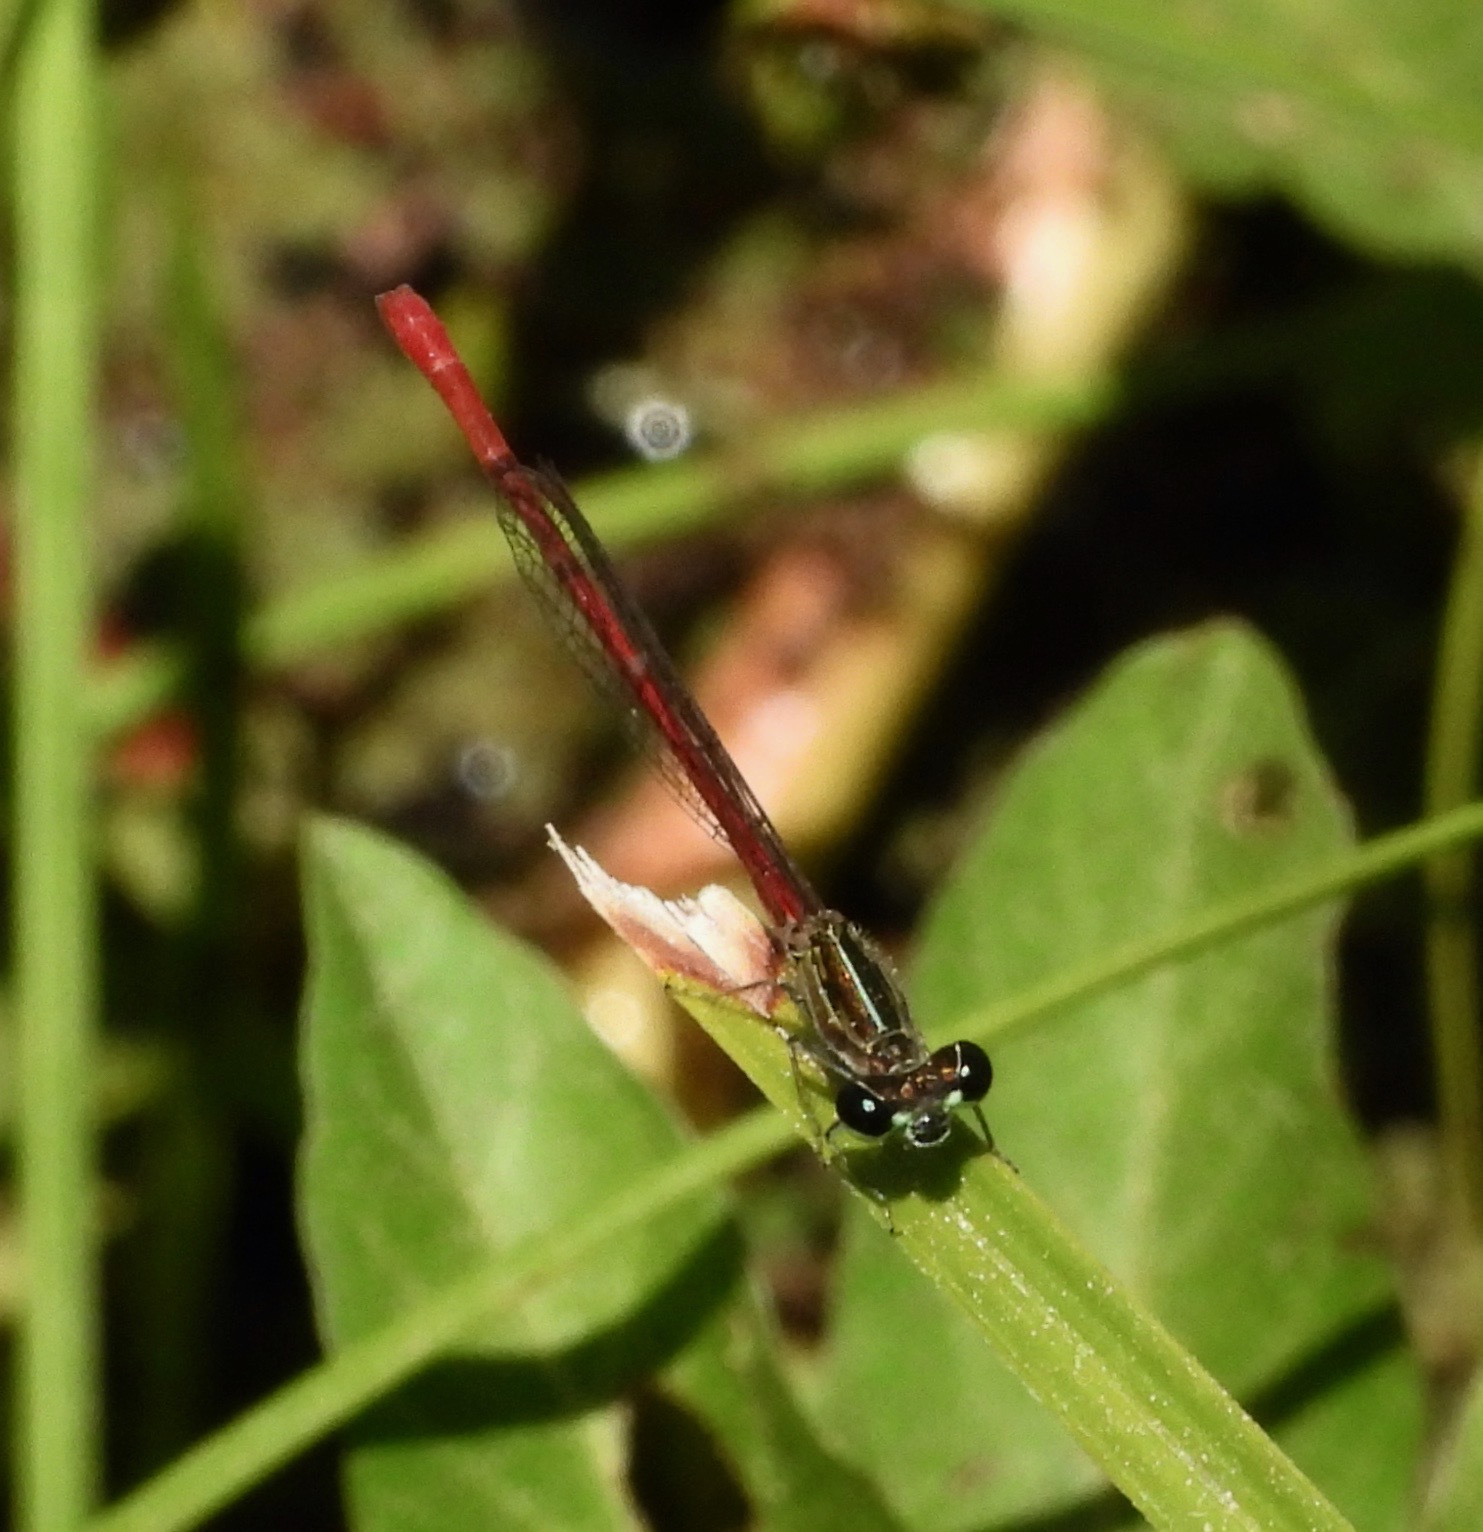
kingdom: Animalia
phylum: Arthropoda
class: Insecta
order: Odonata
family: Coenagrionidae
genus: Telebasis
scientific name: Telebasis willinki
